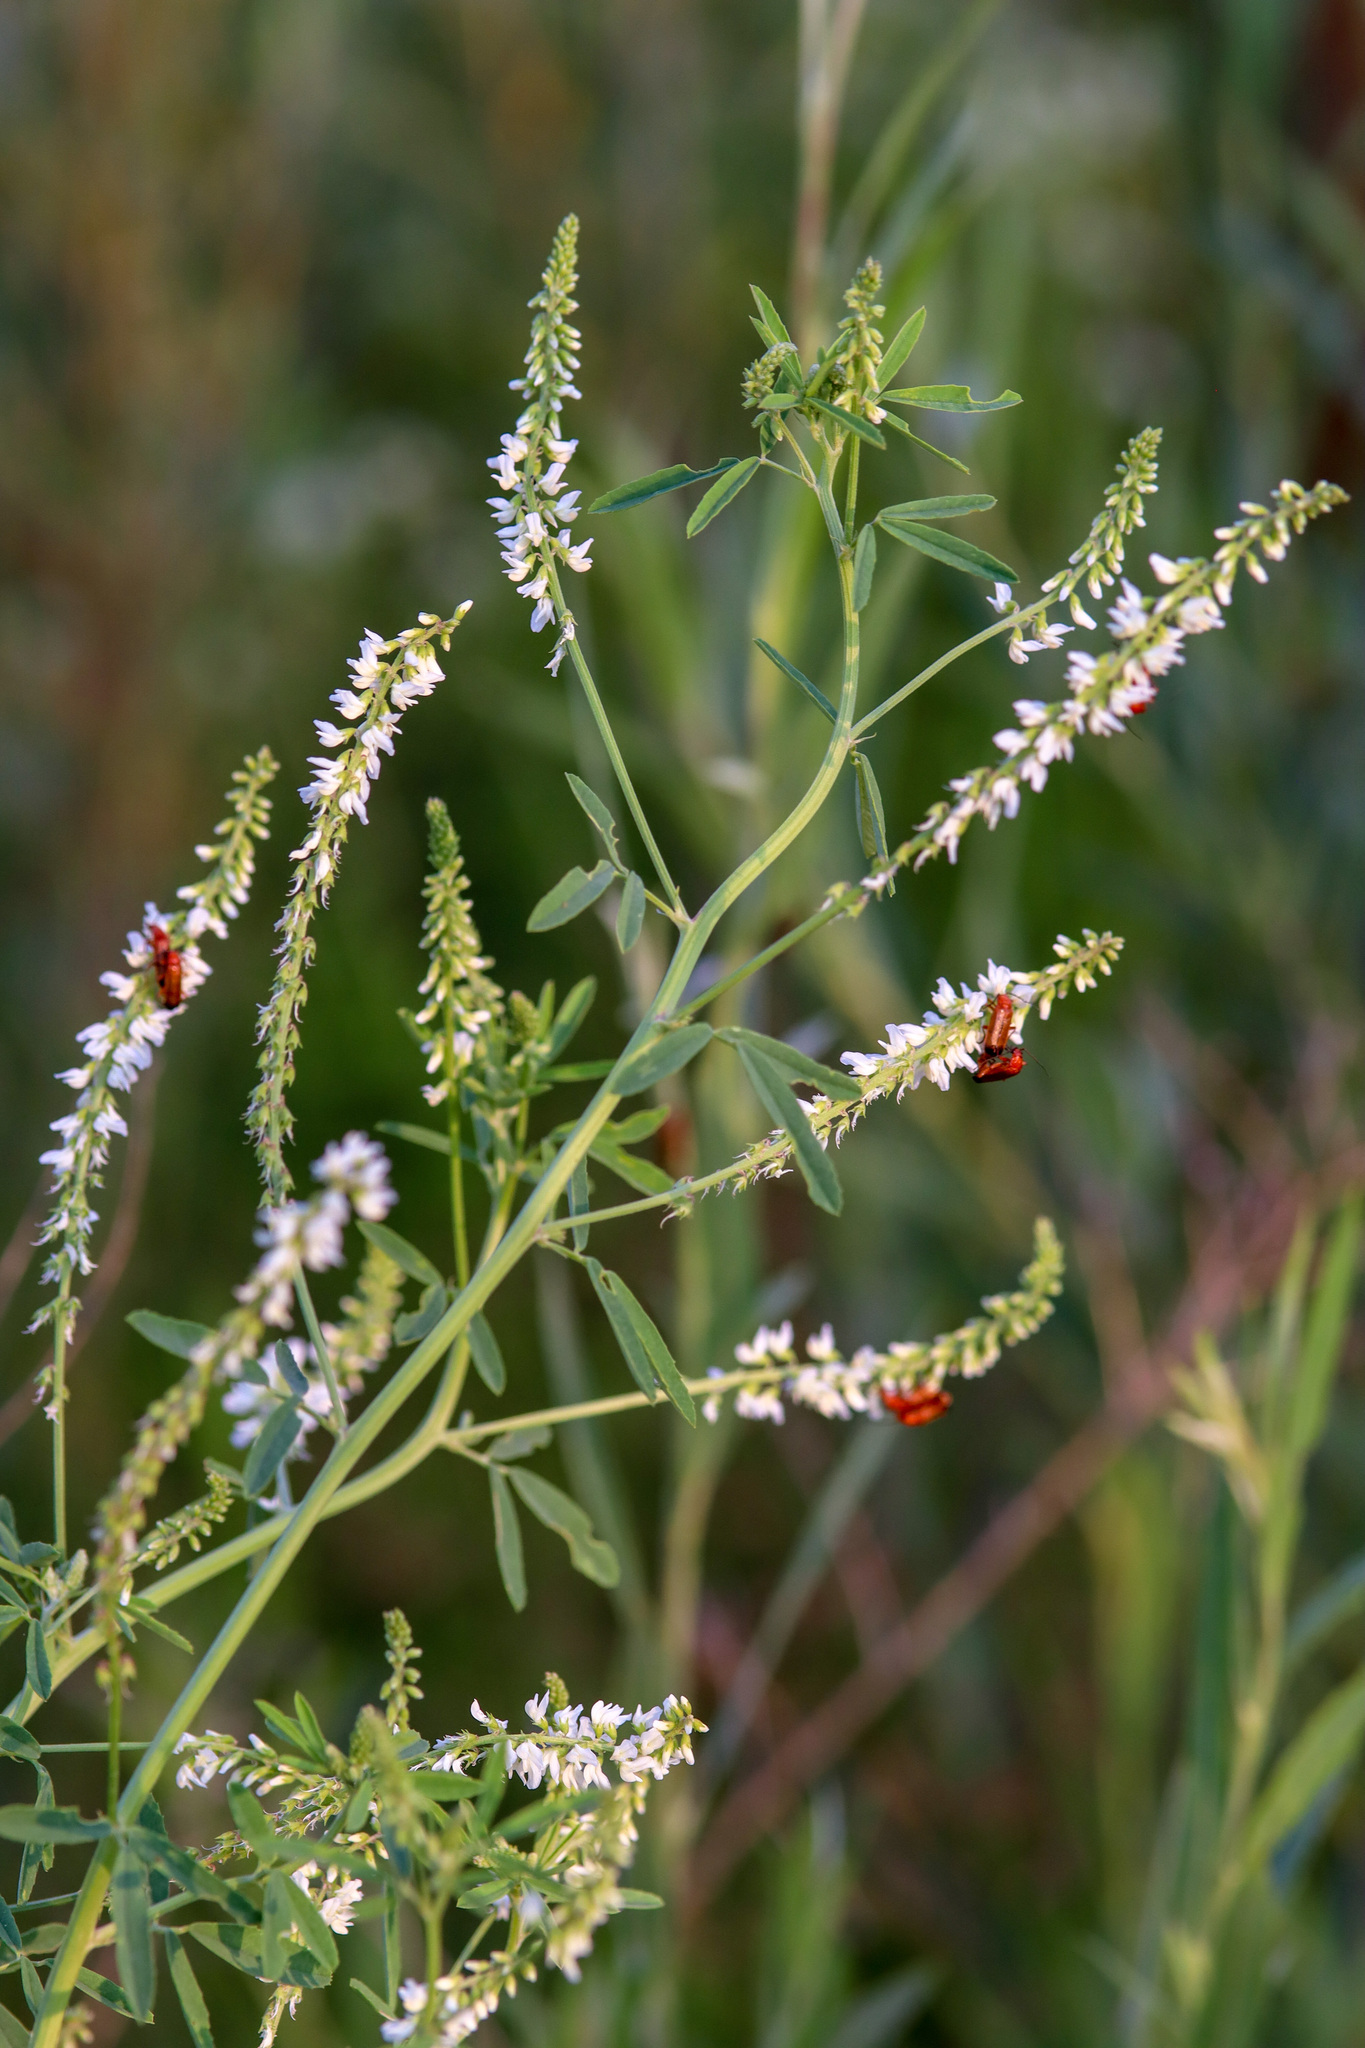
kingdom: Plantae
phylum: Tracheophyta
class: Magnoliopsida
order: Fabales
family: Fabaceae
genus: Melilotus
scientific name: Melilotus albus
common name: White melilot
